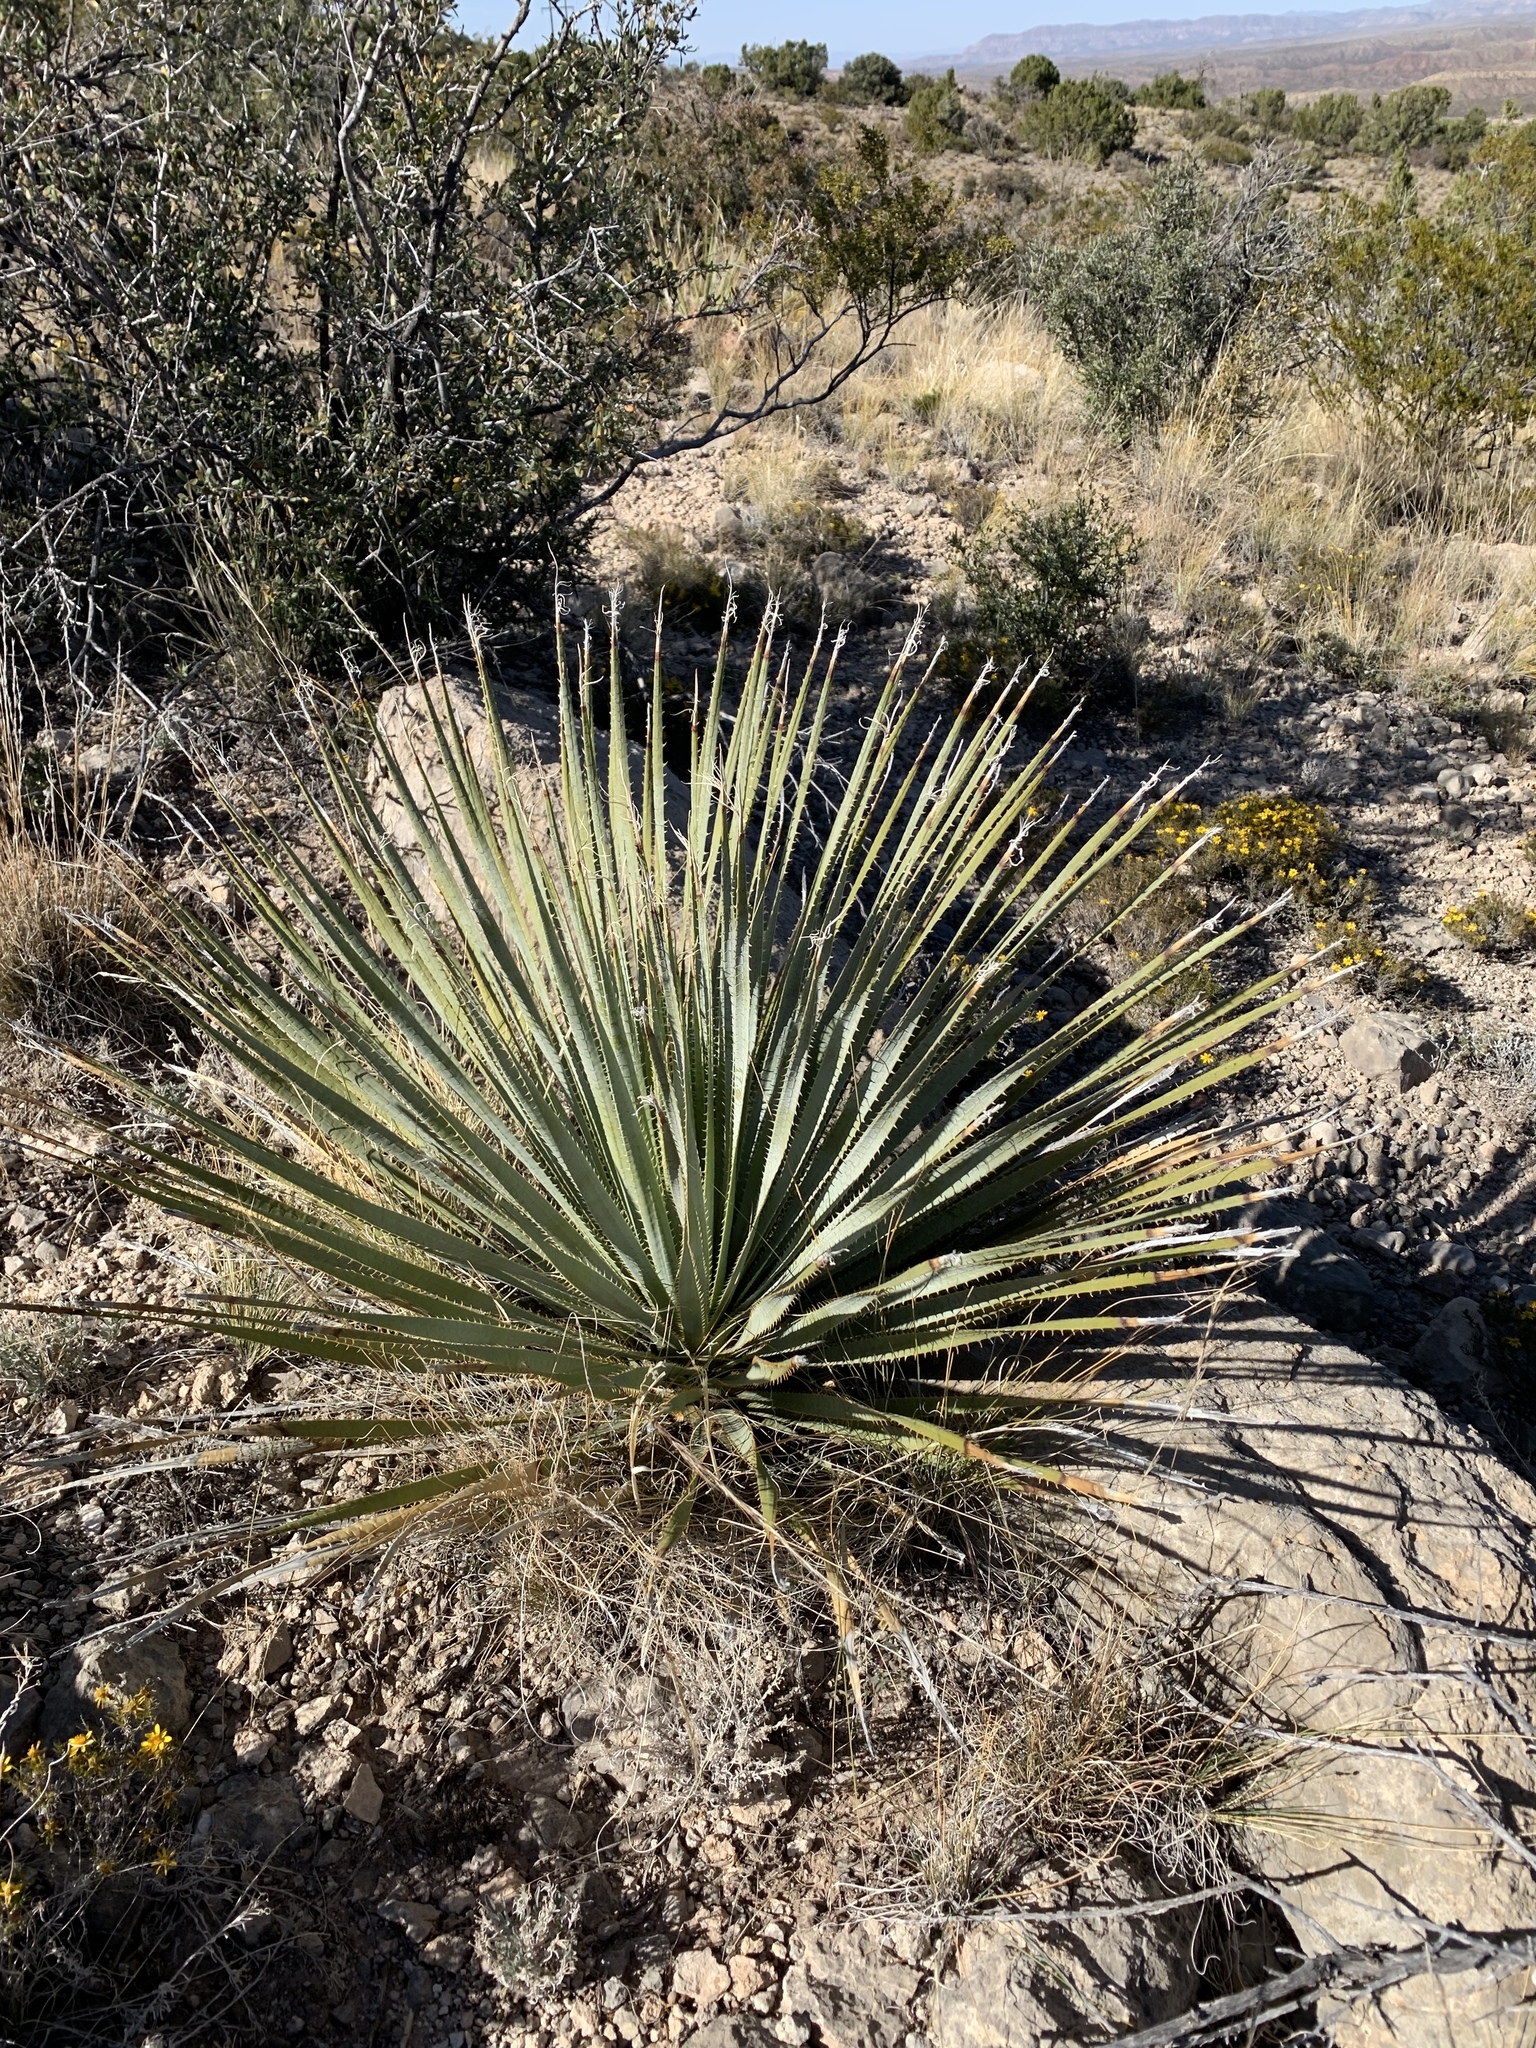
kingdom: Plantae
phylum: Tracheophyta
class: Liliopsida
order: Asparagales
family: Asparagaceae
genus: Dasylirion
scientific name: Dasylirion wheeleri
